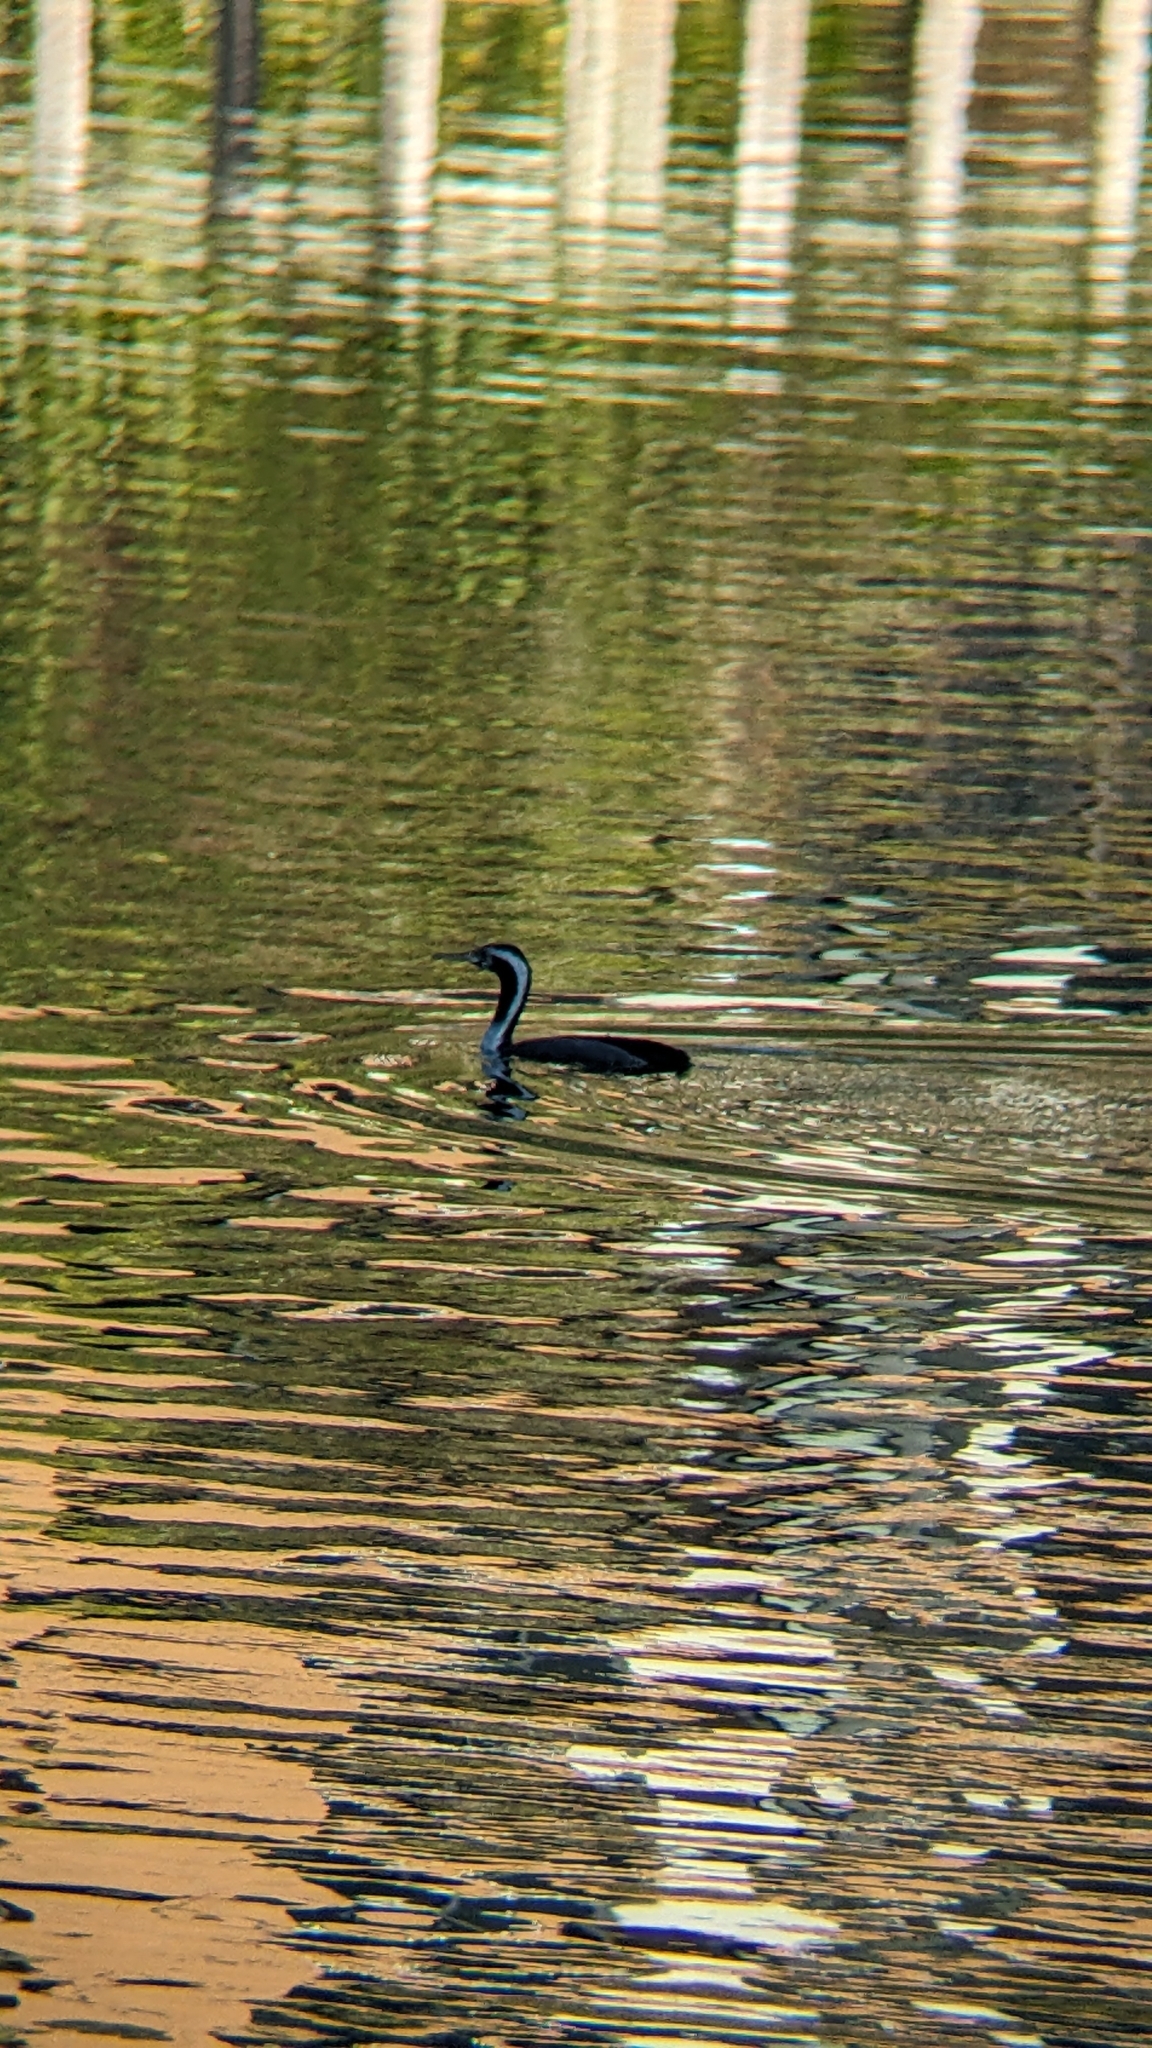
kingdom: Animalia
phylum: Chordata
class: Aves
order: Suliformes
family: Phalacrocoracidae
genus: Phalacrocorax
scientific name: Phalacrocorax punctatus
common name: Spotted shag
